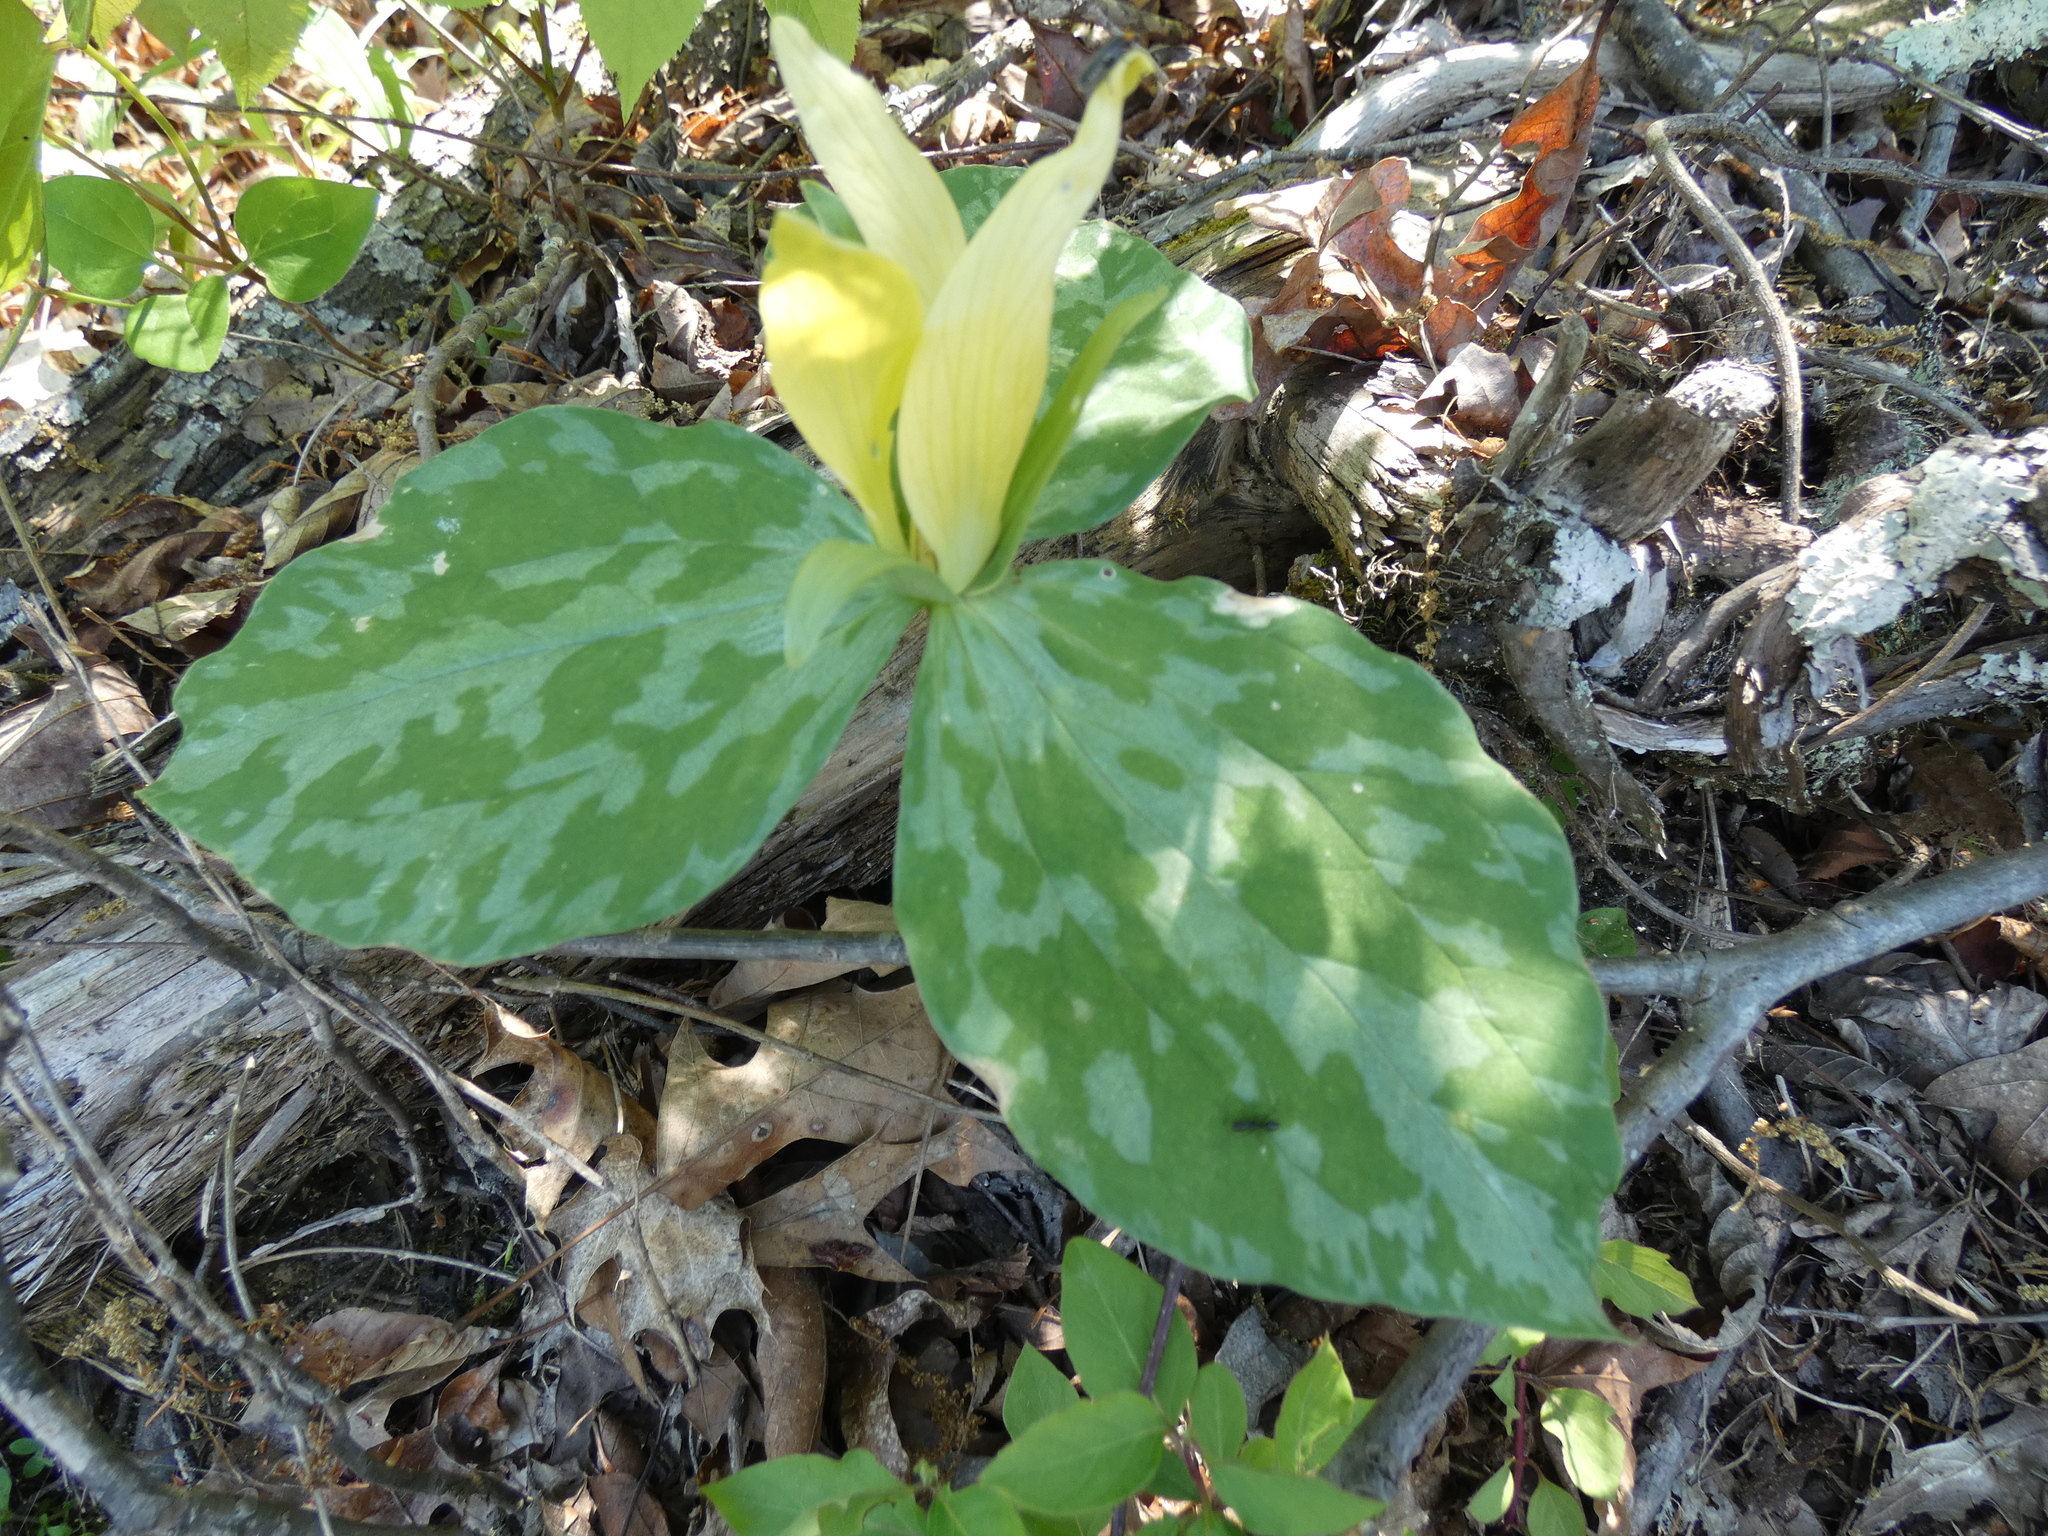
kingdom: Plantae
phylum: Tracheophyta
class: Liliopsida
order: Liliales
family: Melanthiaceae
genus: Trillium
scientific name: Trillium luteum
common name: Wax trillium
